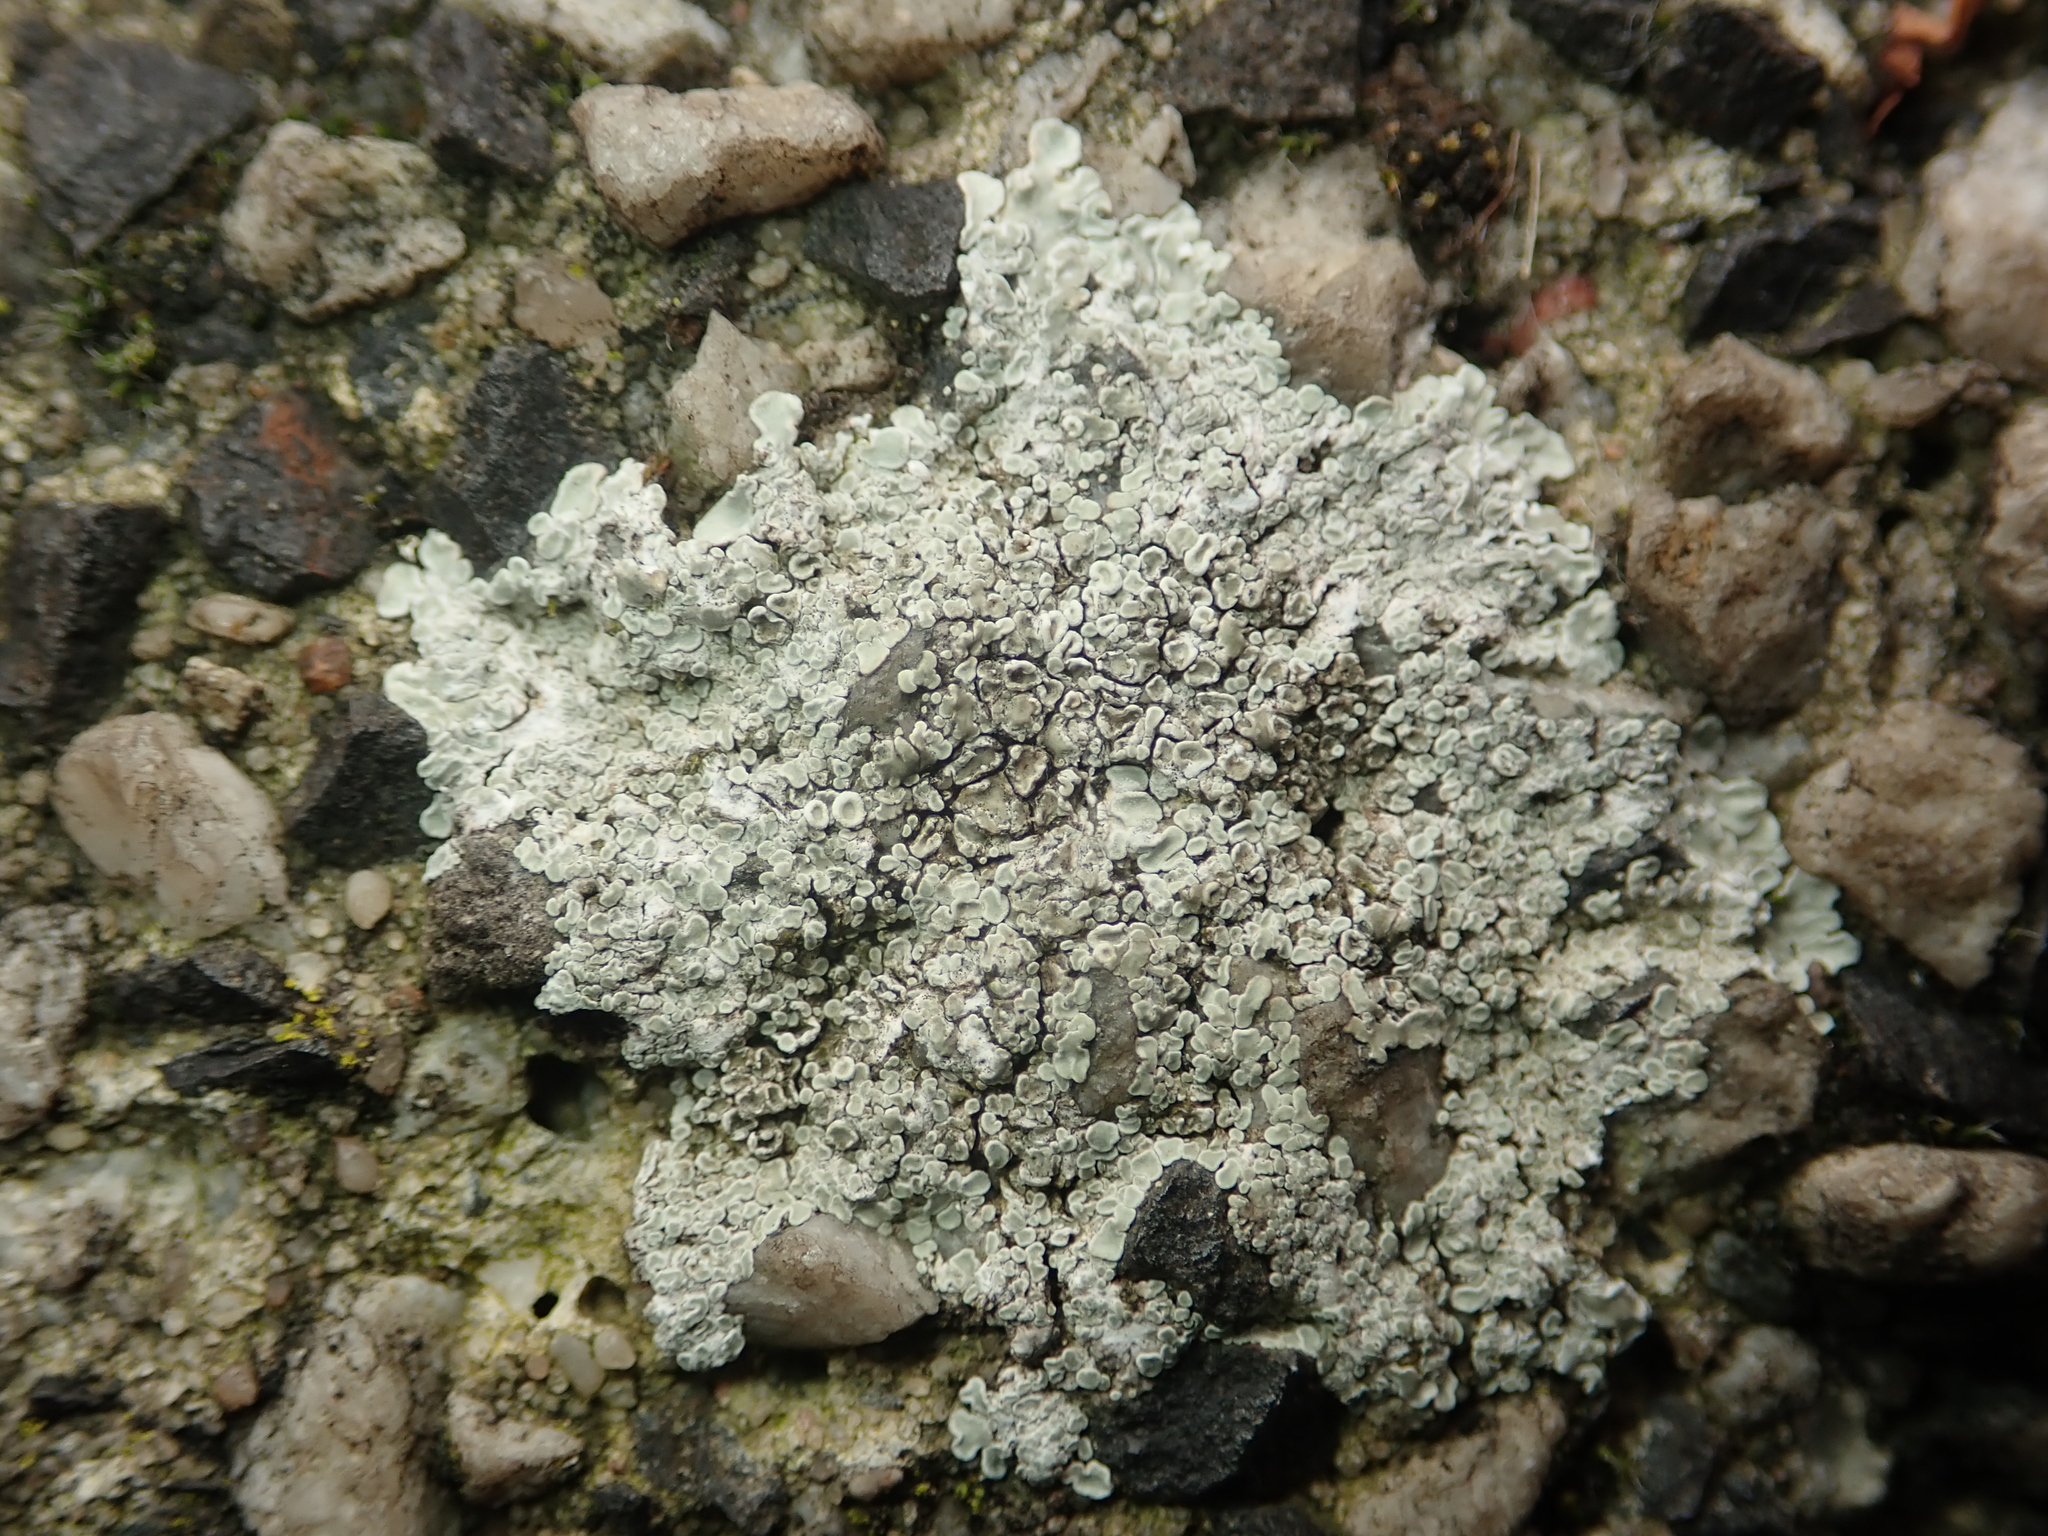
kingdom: Fungi
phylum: Ascomycota
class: Lecanoromycetes
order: Lecanorales
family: Lecanoraceae
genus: Protoparmeliopsis
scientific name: Protoparmeliopsis muralis
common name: Stonewall rim lichen
